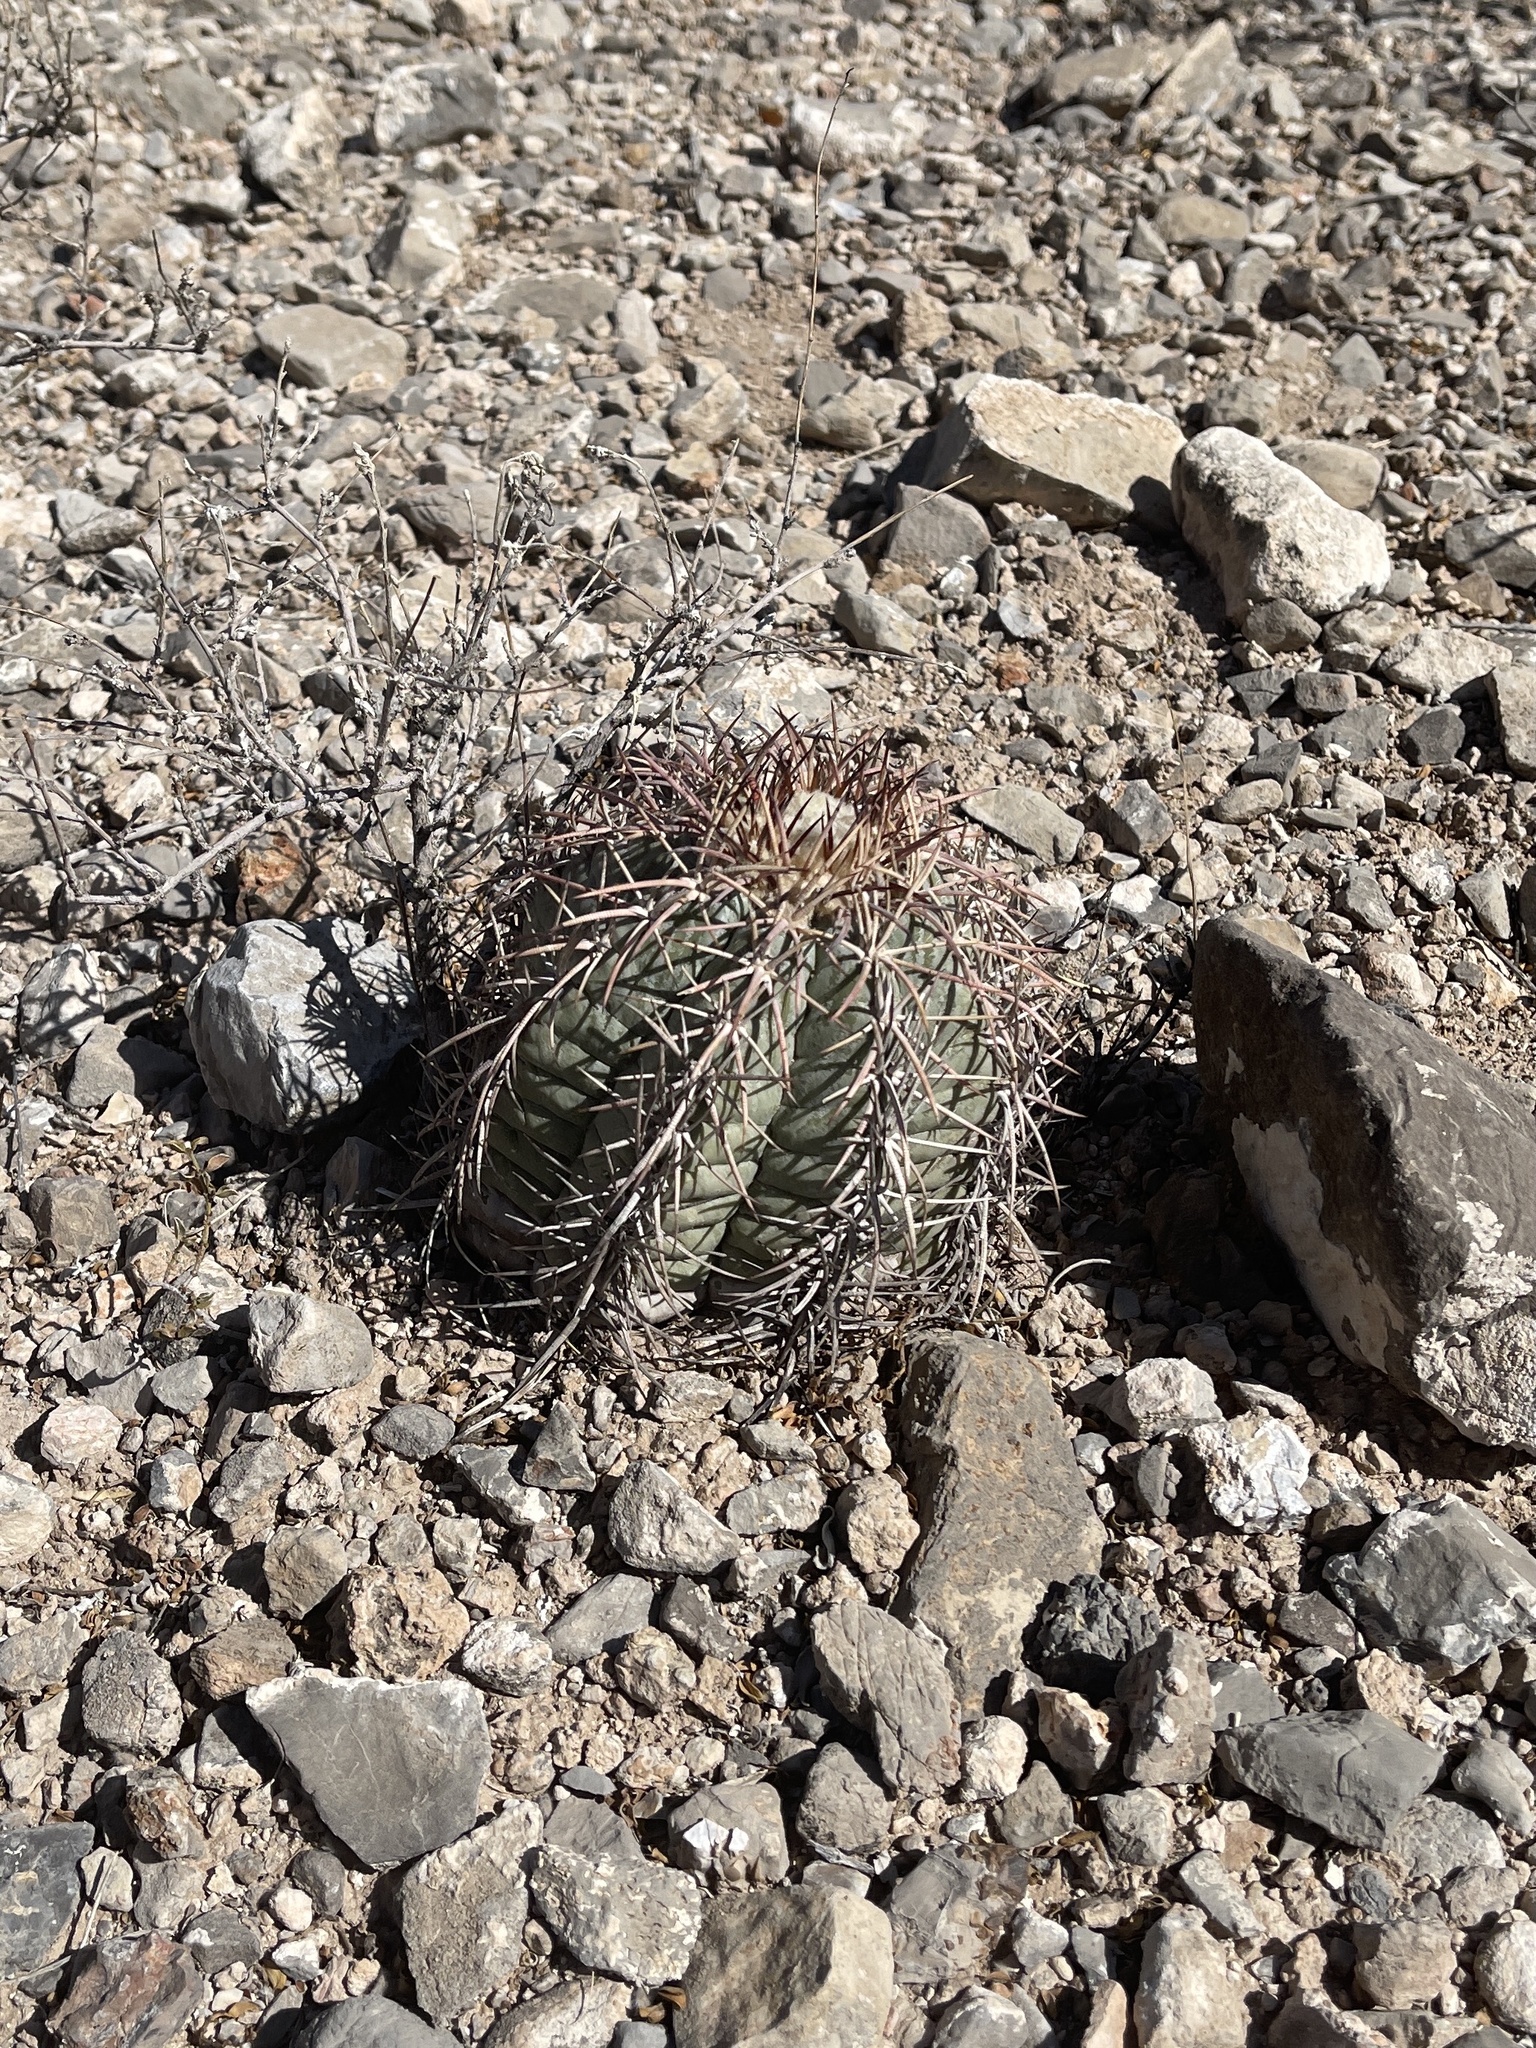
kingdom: Plantae
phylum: Tracheophyta
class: Magnoliopsida
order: Caryophyllales
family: Cactaceae
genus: Echinocactus
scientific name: Echinocactus horizonthalonius
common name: Devilshead
